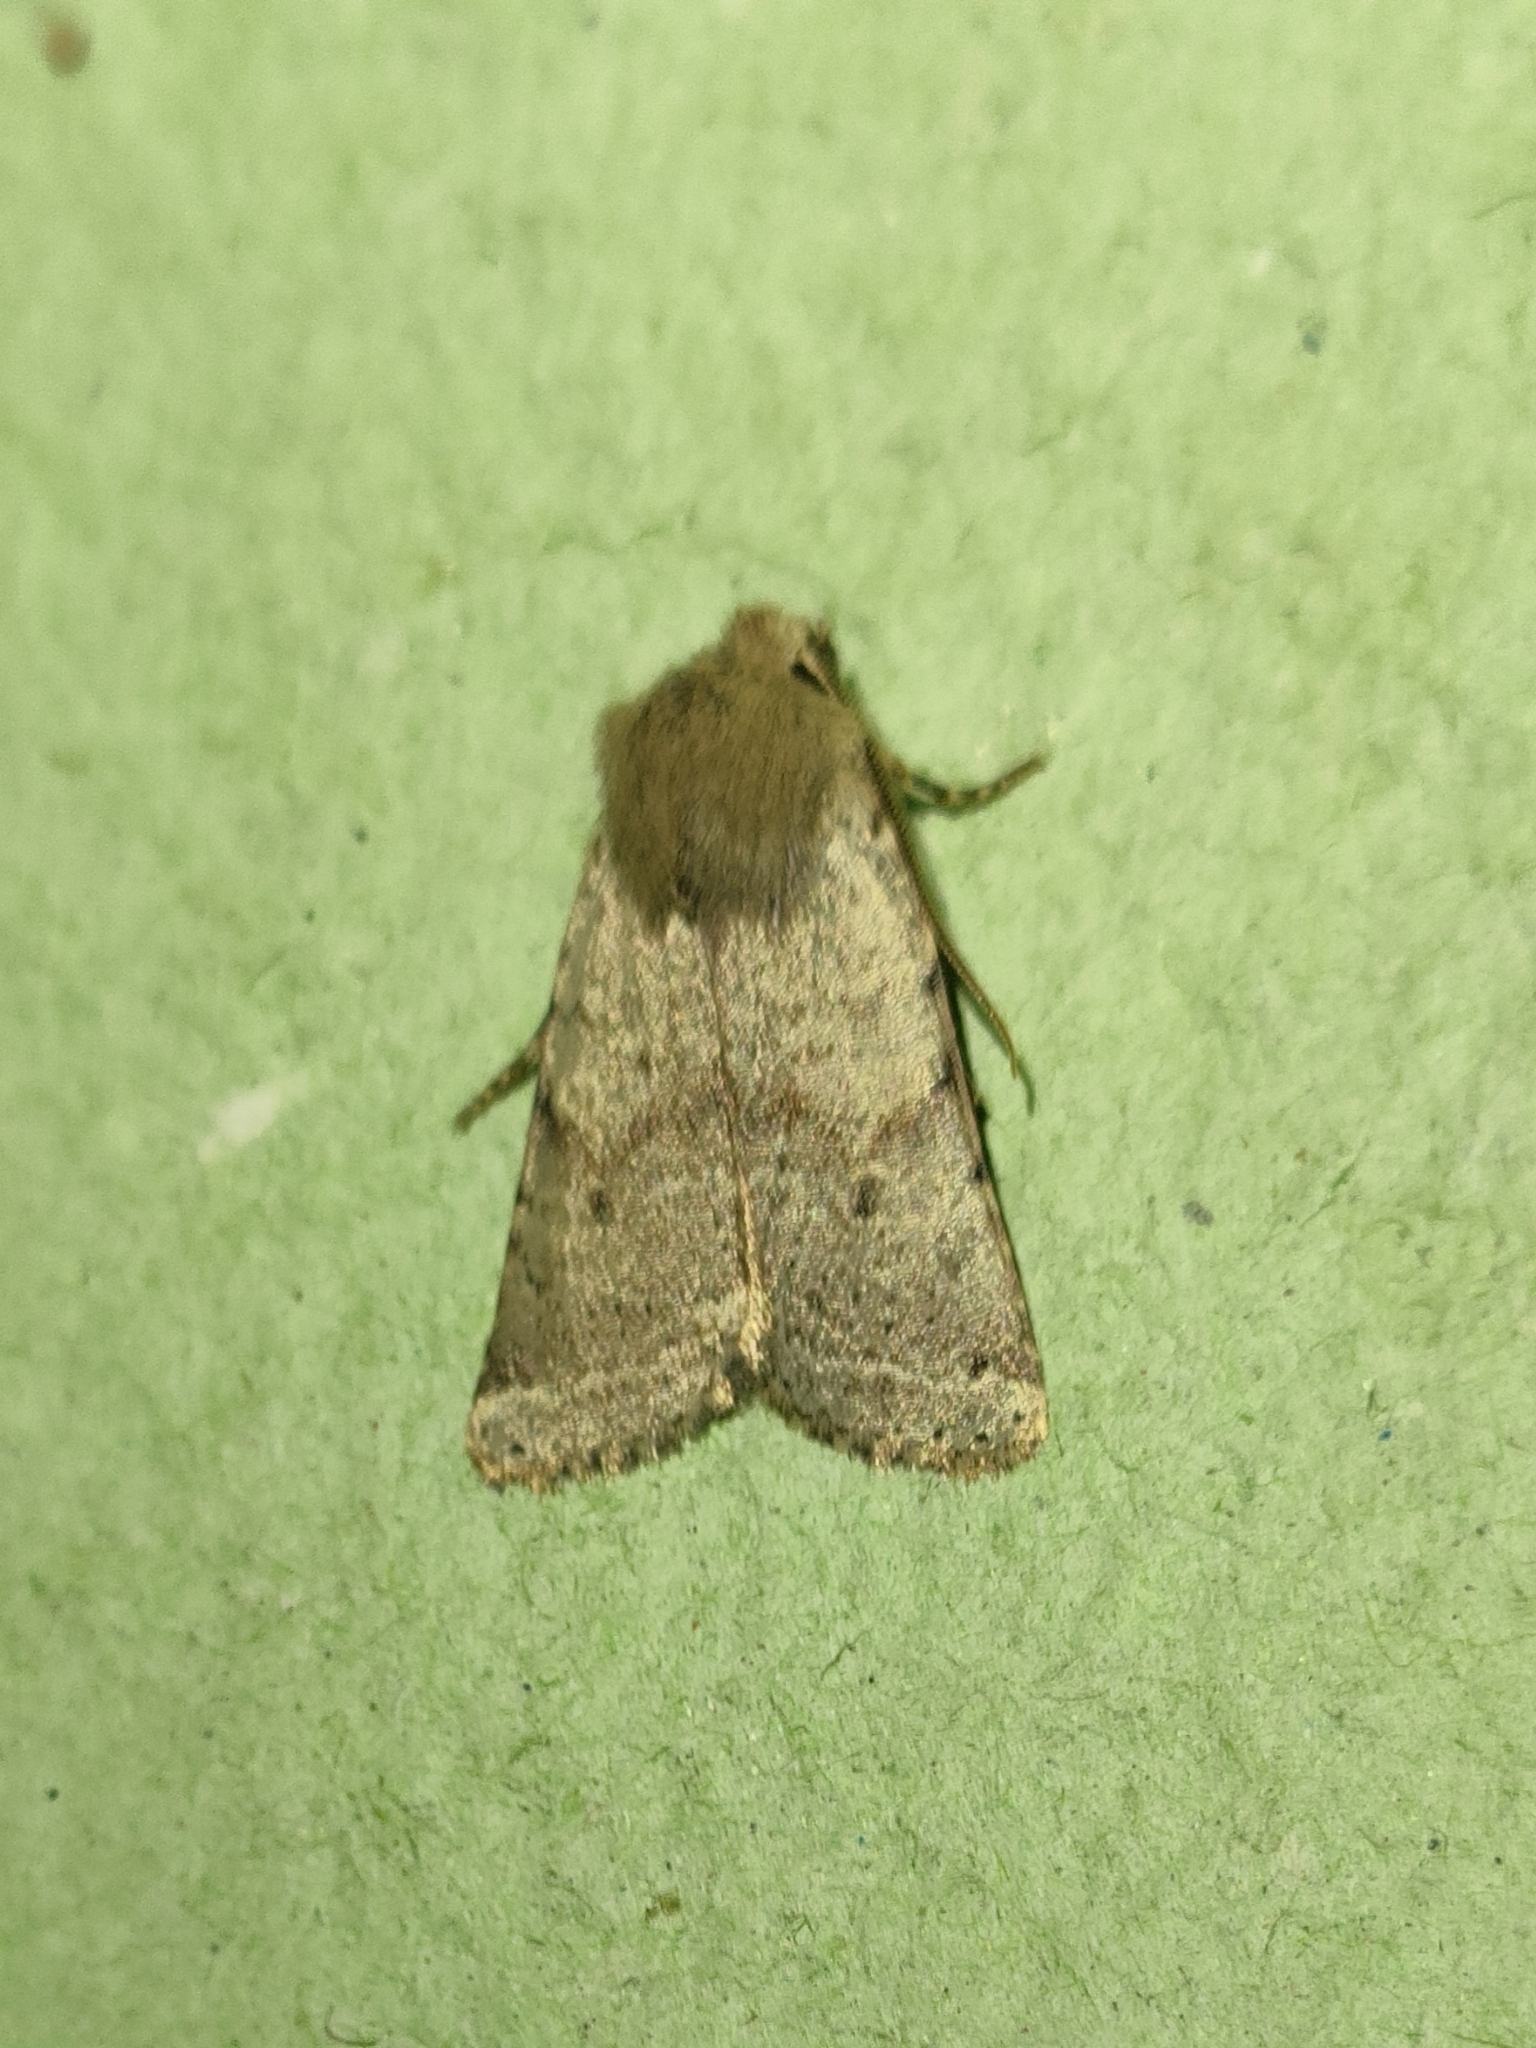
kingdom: Animalia
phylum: Arthropoda
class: Insecta
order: Lepidoptera
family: Noctuidae
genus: Agrochola
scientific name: Agrochola ruticilla
